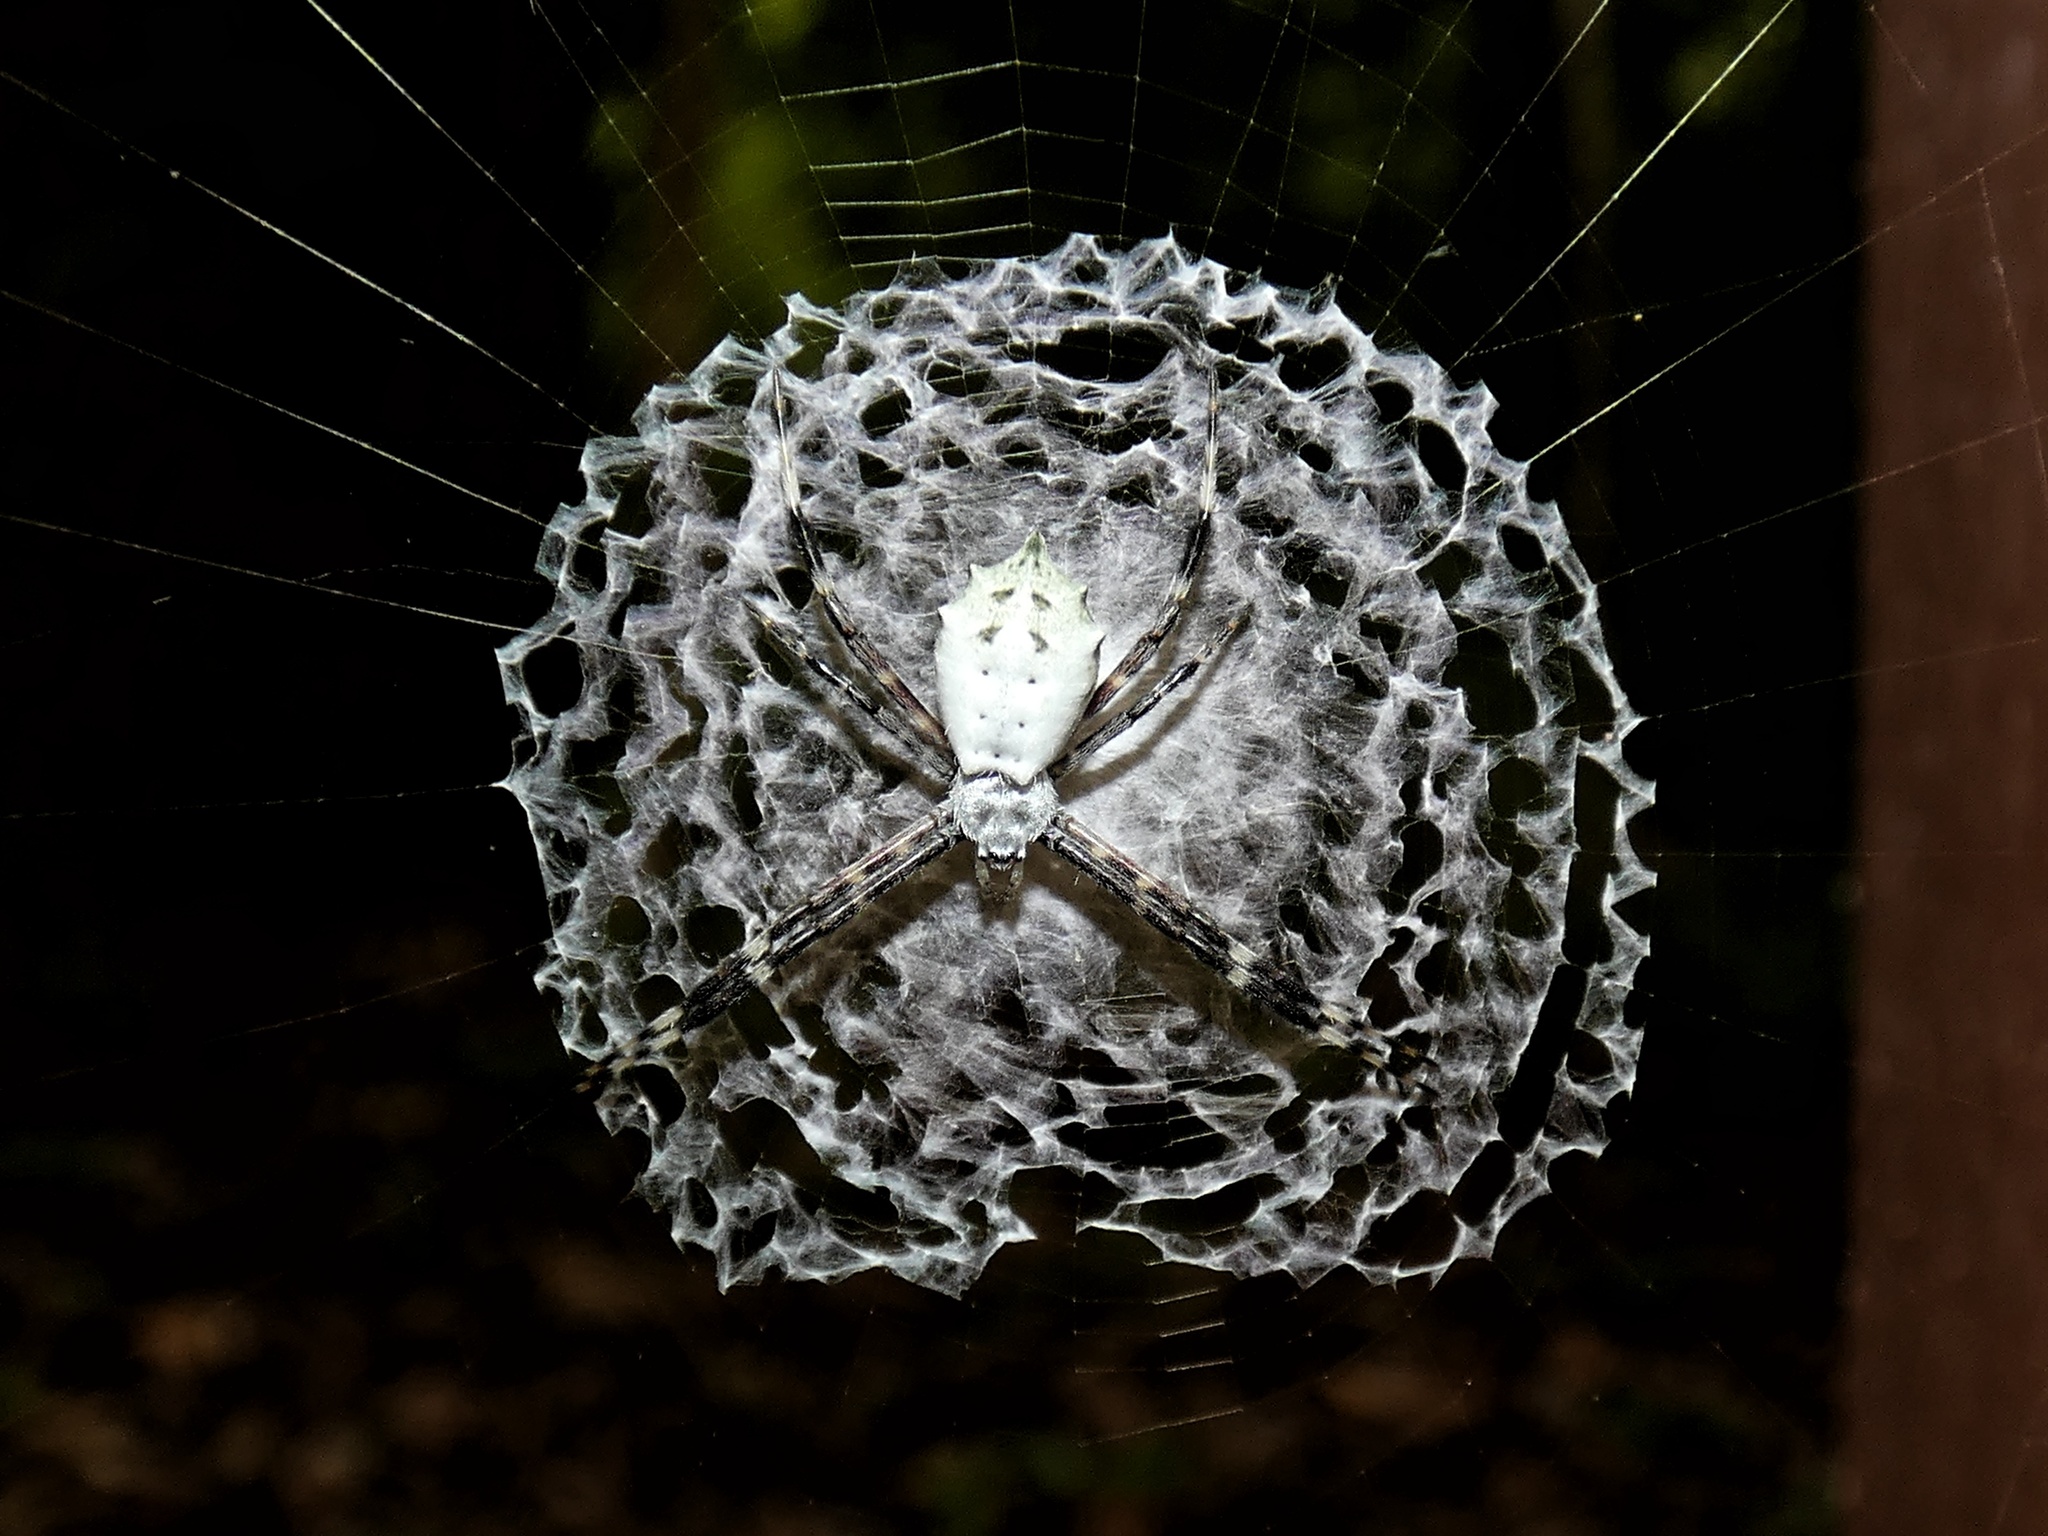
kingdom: Animalia
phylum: Arthropoda
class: Arachnida
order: Araneae
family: Araneidae
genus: Argiope
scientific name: Argiope submaronica
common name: Orb weavers
